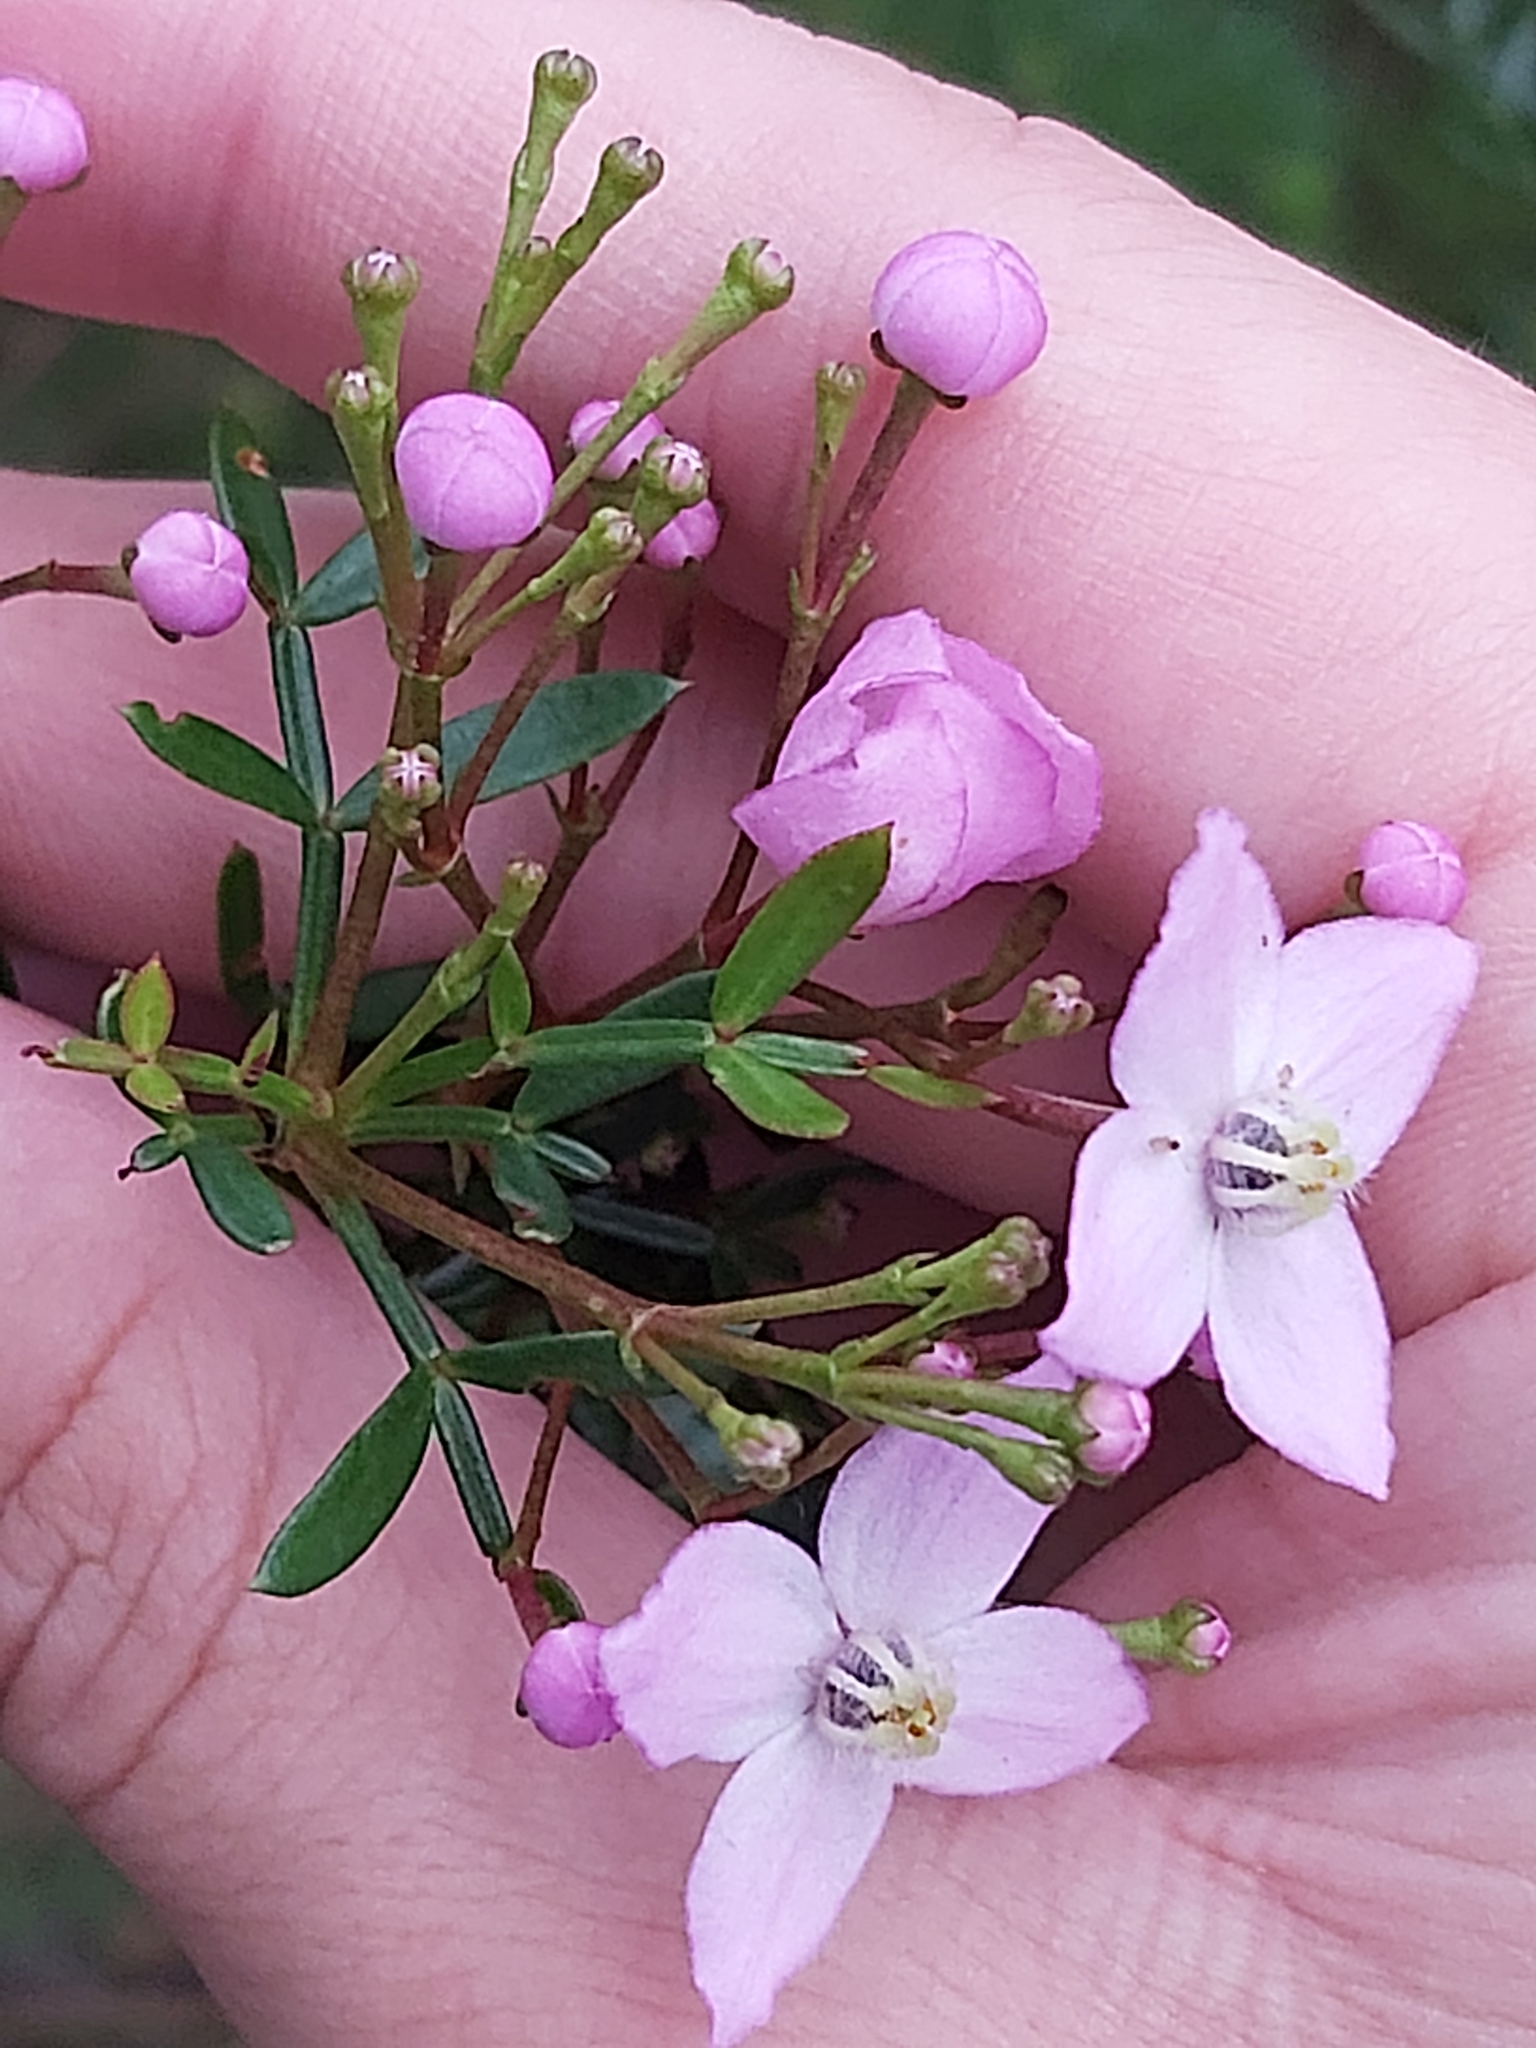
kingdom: Plantae
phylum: Tracheophyta
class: Magnoliopsida
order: Sapindales
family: Rutaceae
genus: Boronia
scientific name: Boronia pinnata
